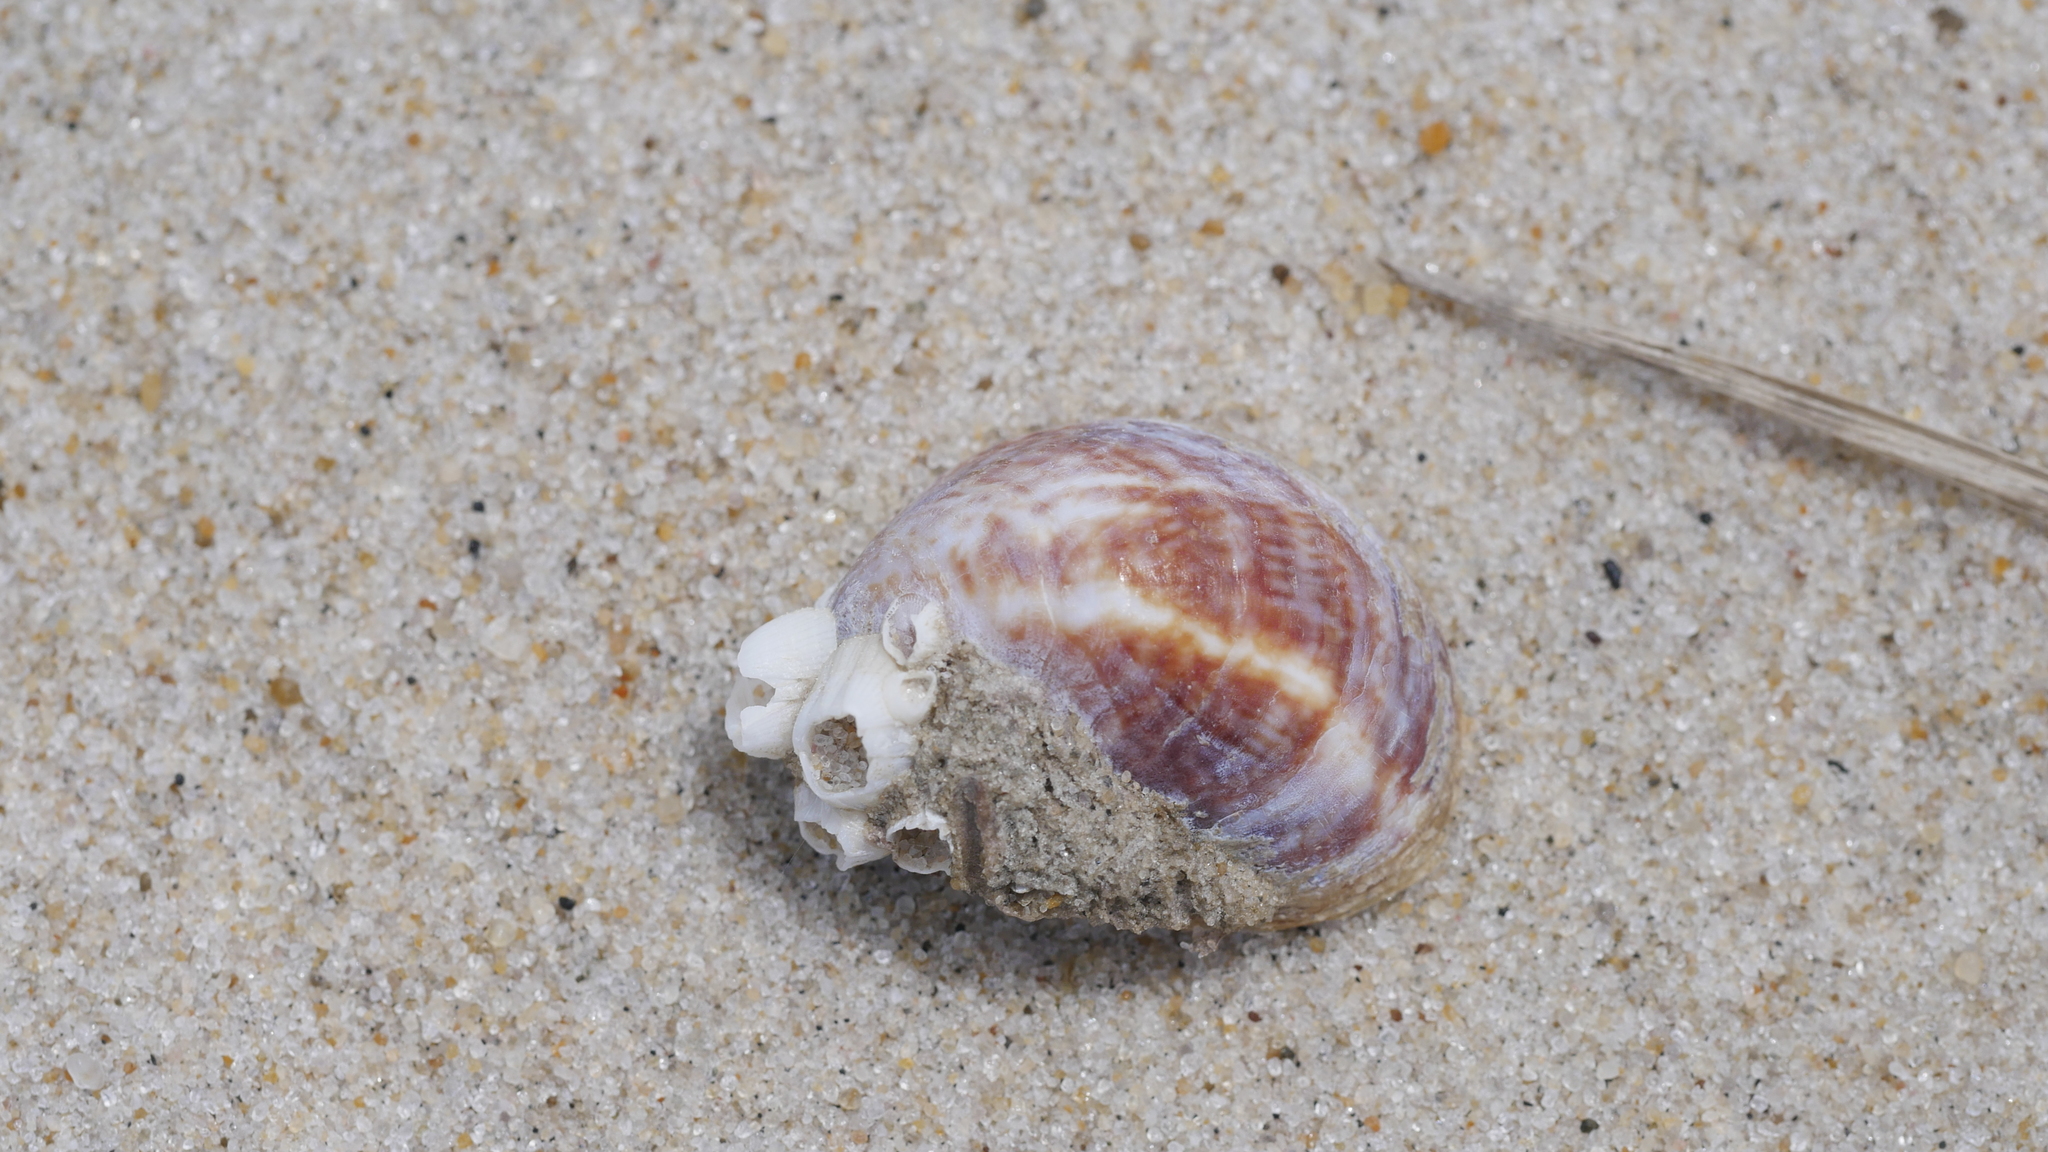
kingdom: Animalia
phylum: Mollusca
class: Gastropoda
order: Littorinimorpha
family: Calyptraeidae
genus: Crepidula
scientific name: Crepidula fornicata
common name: Slipper limpet
